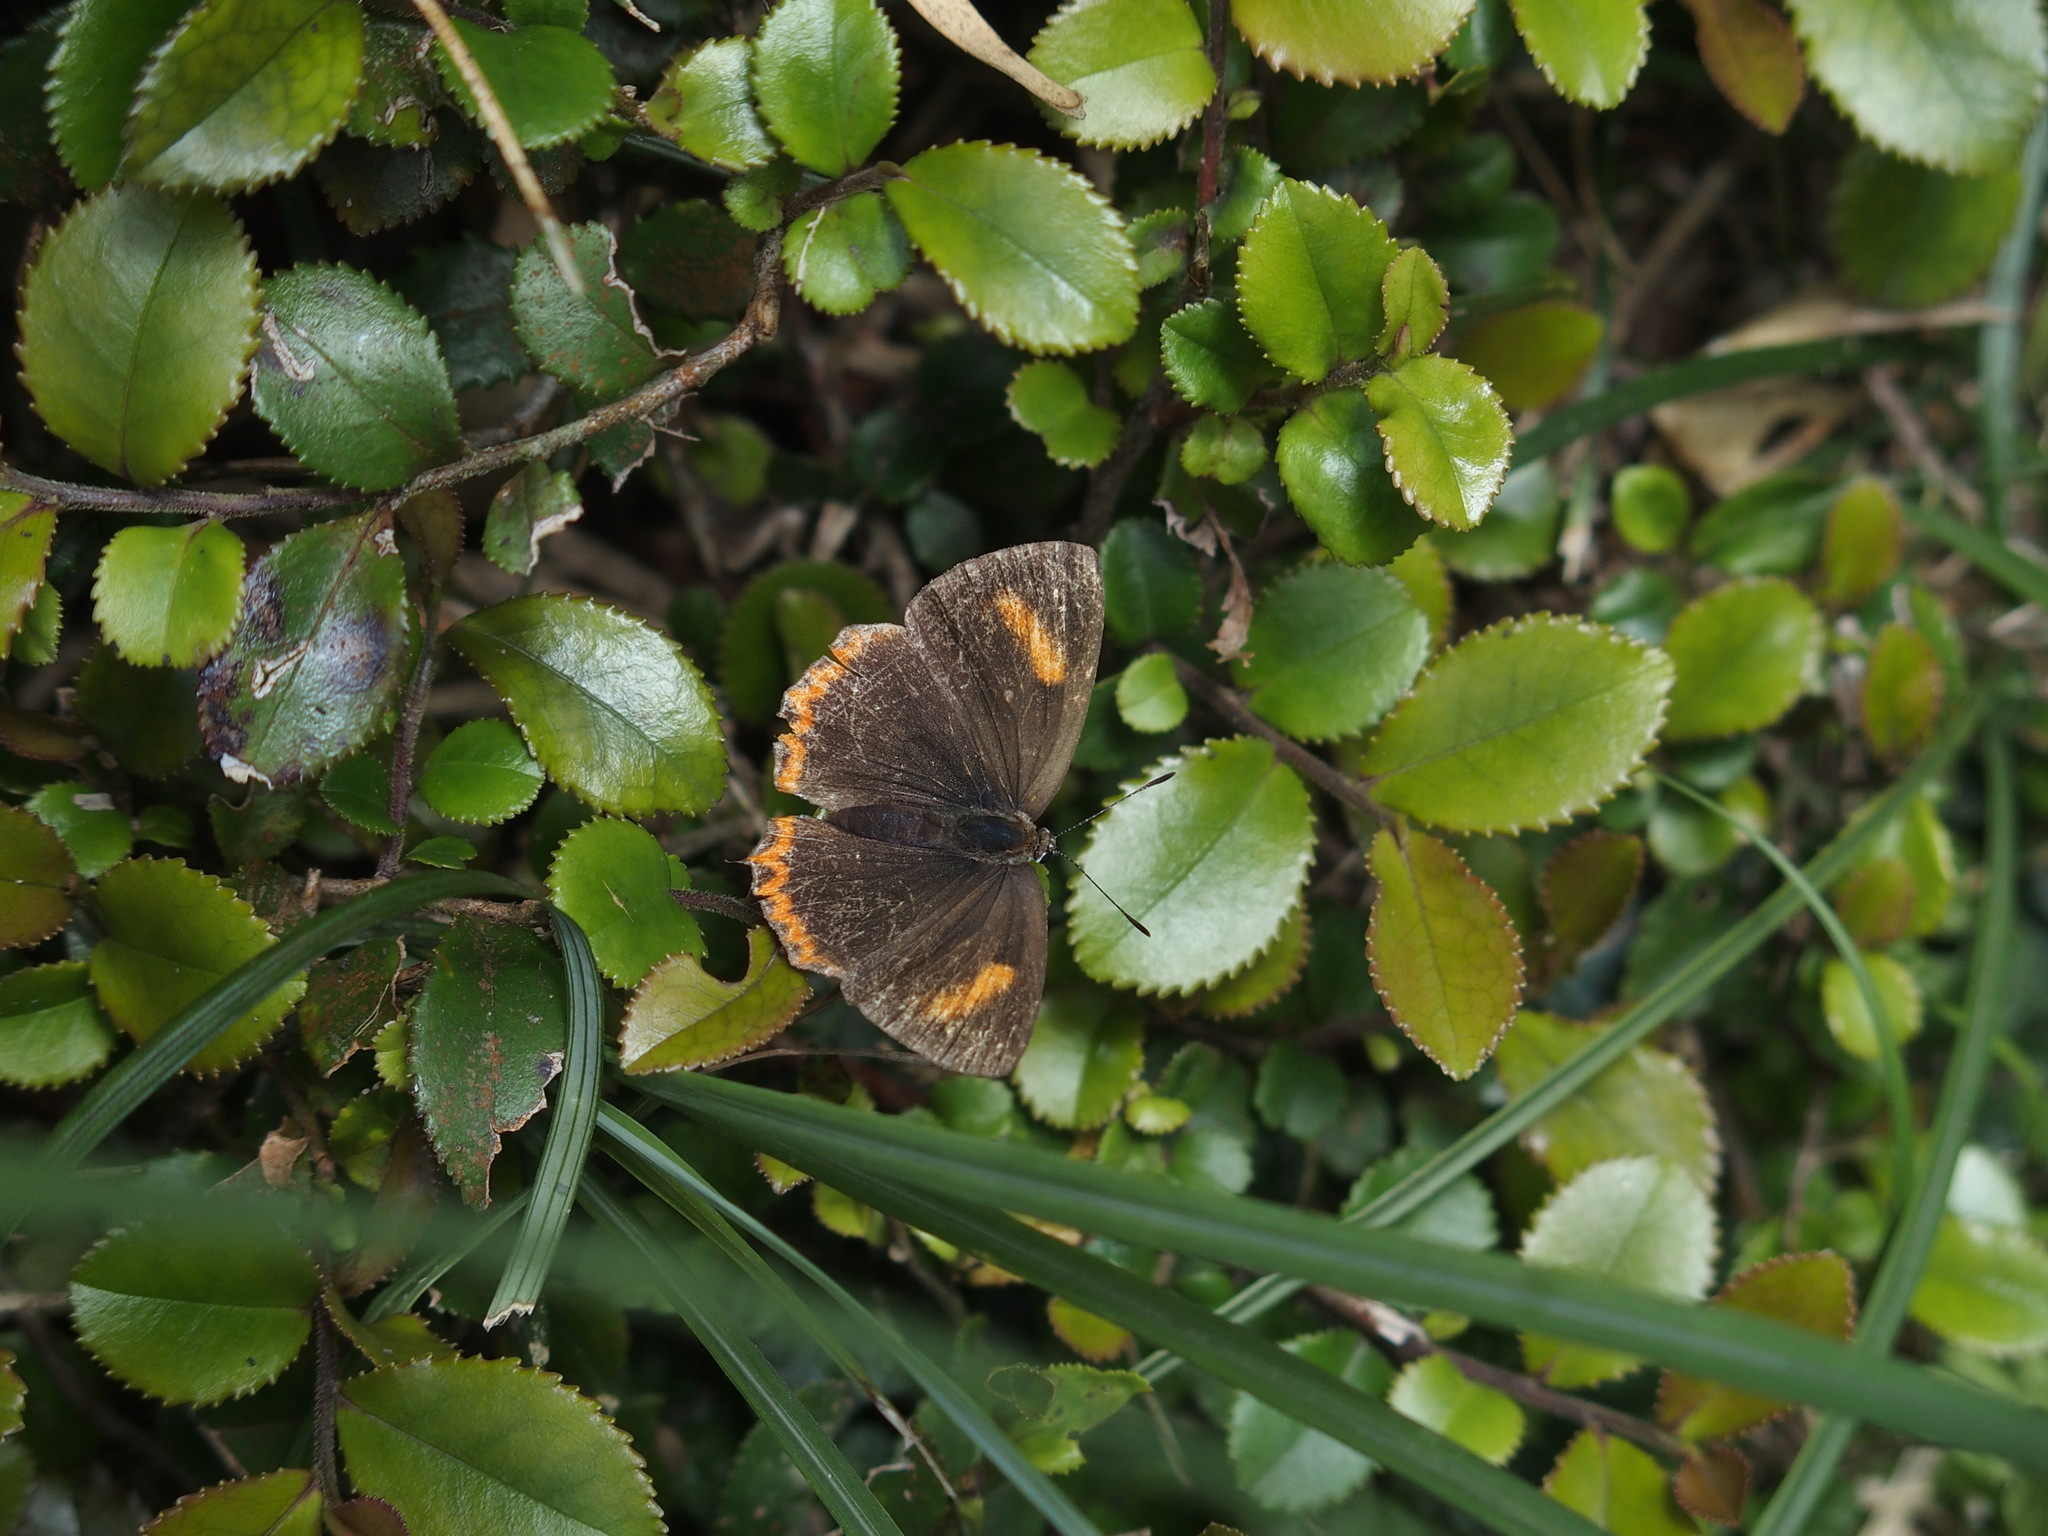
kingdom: Animalia
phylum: Arthropoda
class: Insecta
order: Lepidoptera
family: Lycaenidae
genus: Heliophorus
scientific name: Heliophorus ila
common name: Restricted purple sapphire
